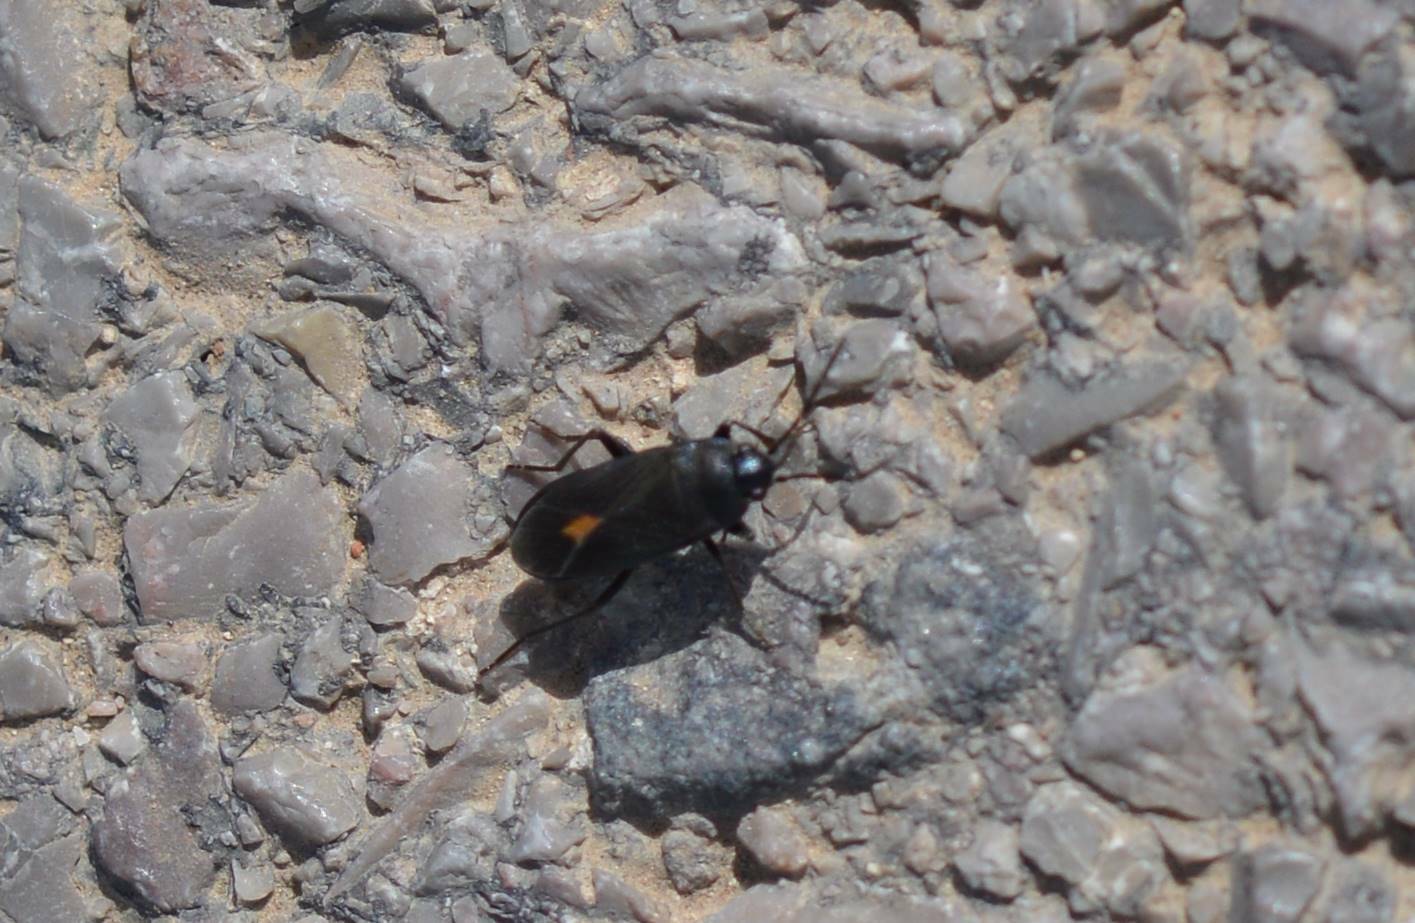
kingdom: Animalia
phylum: Arthropoda
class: Insecta
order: Hemiptera
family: Rhyparochromidae
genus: Aphanus
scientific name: Aphanus rolandri
